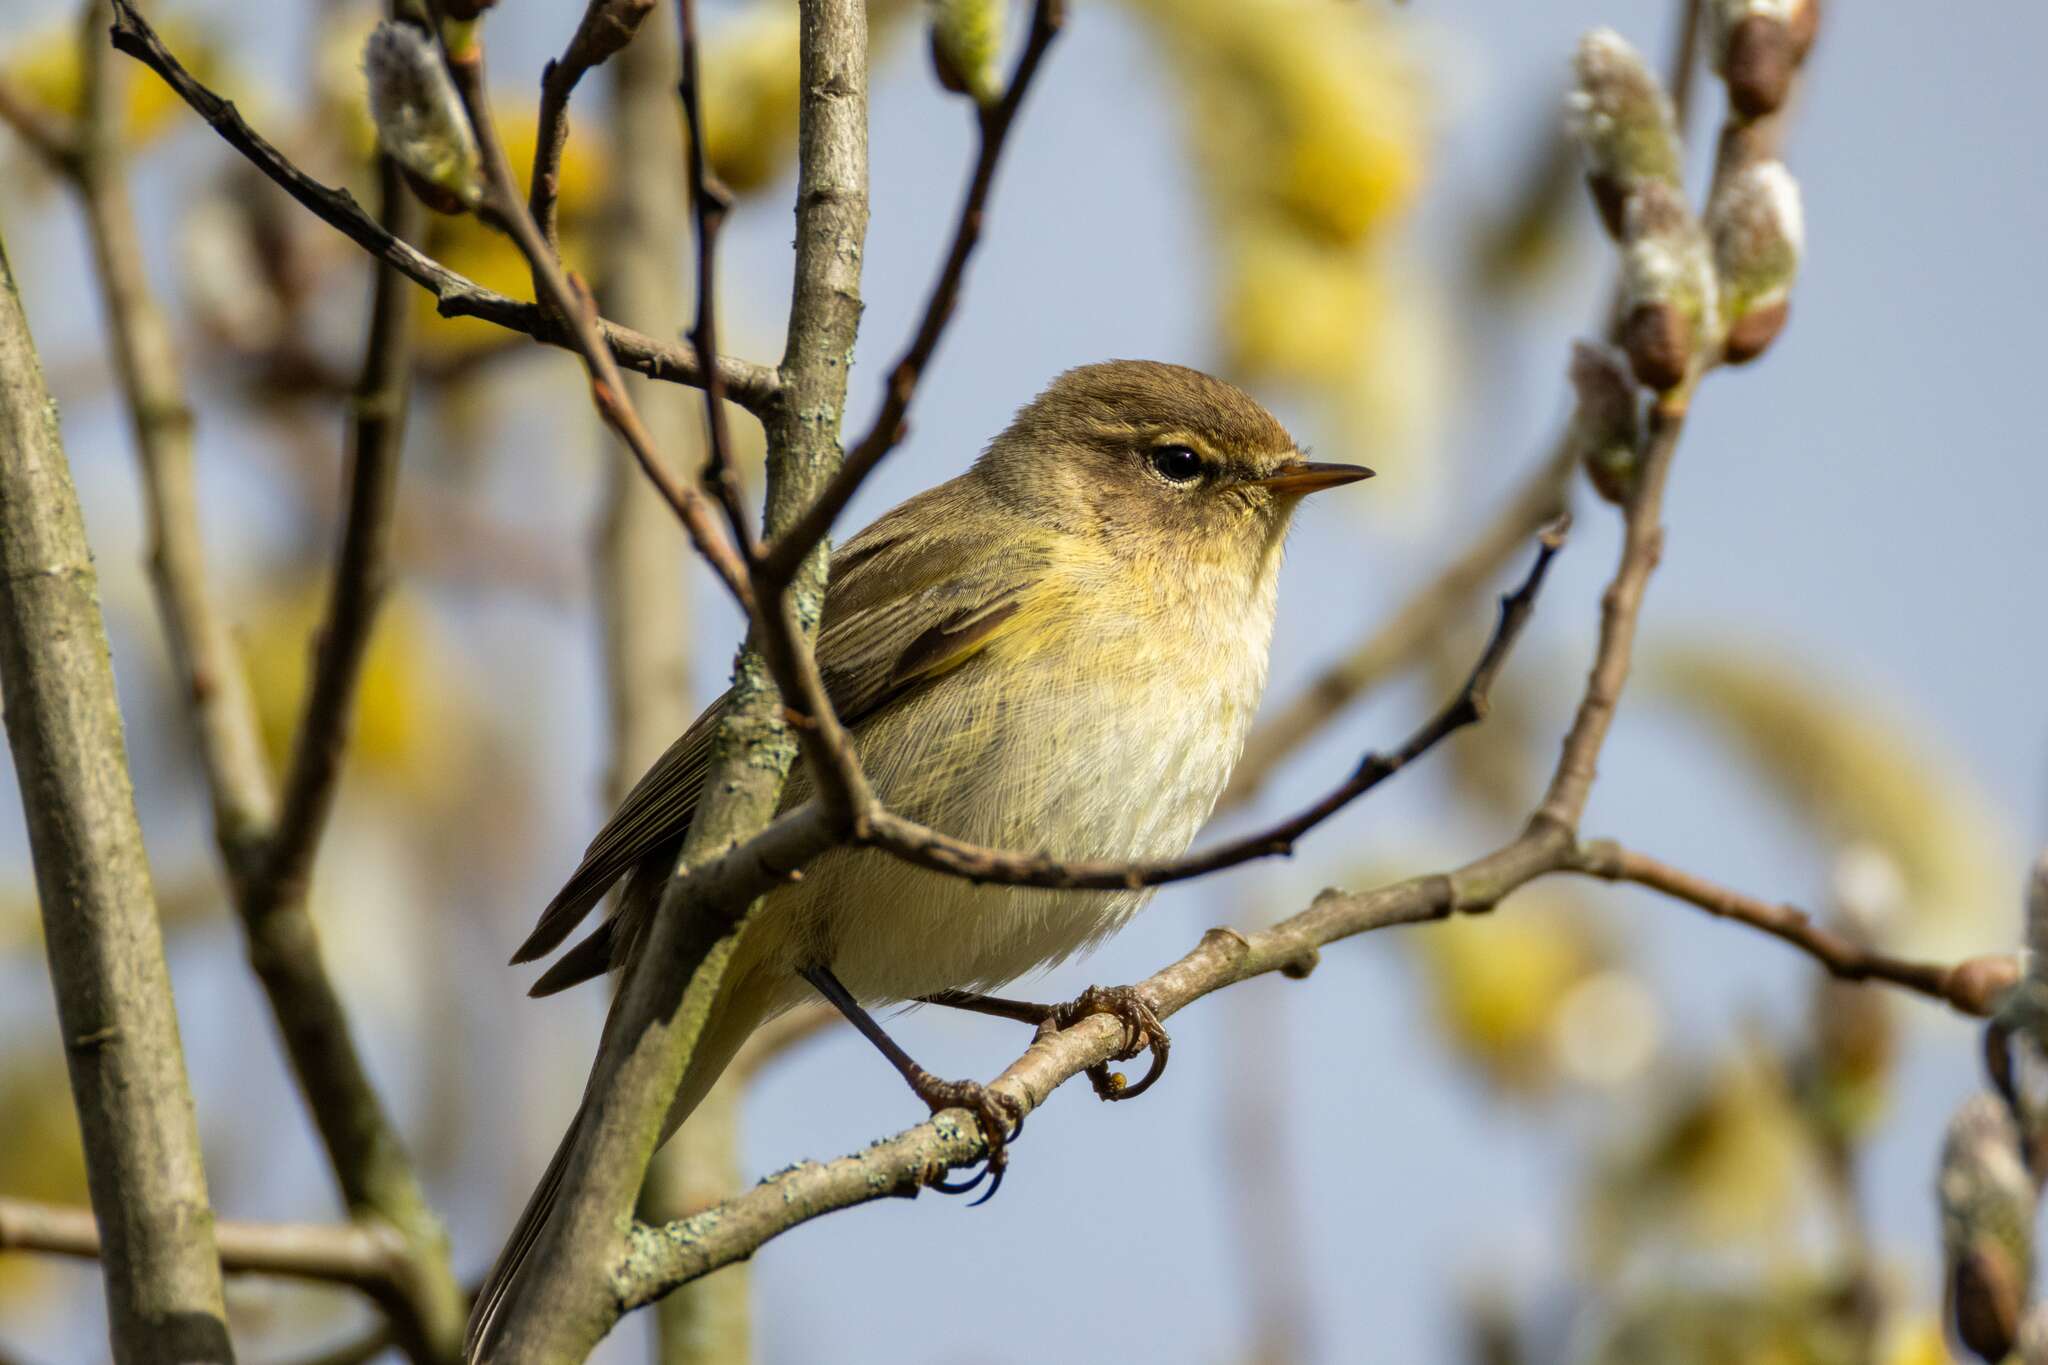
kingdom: Animalia
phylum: Chordata
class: Aves
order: Passeriformes
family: Phylloscopidae
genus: Phylloscopus
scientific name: Phylloscopus collybita
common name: Common chiffchaff
